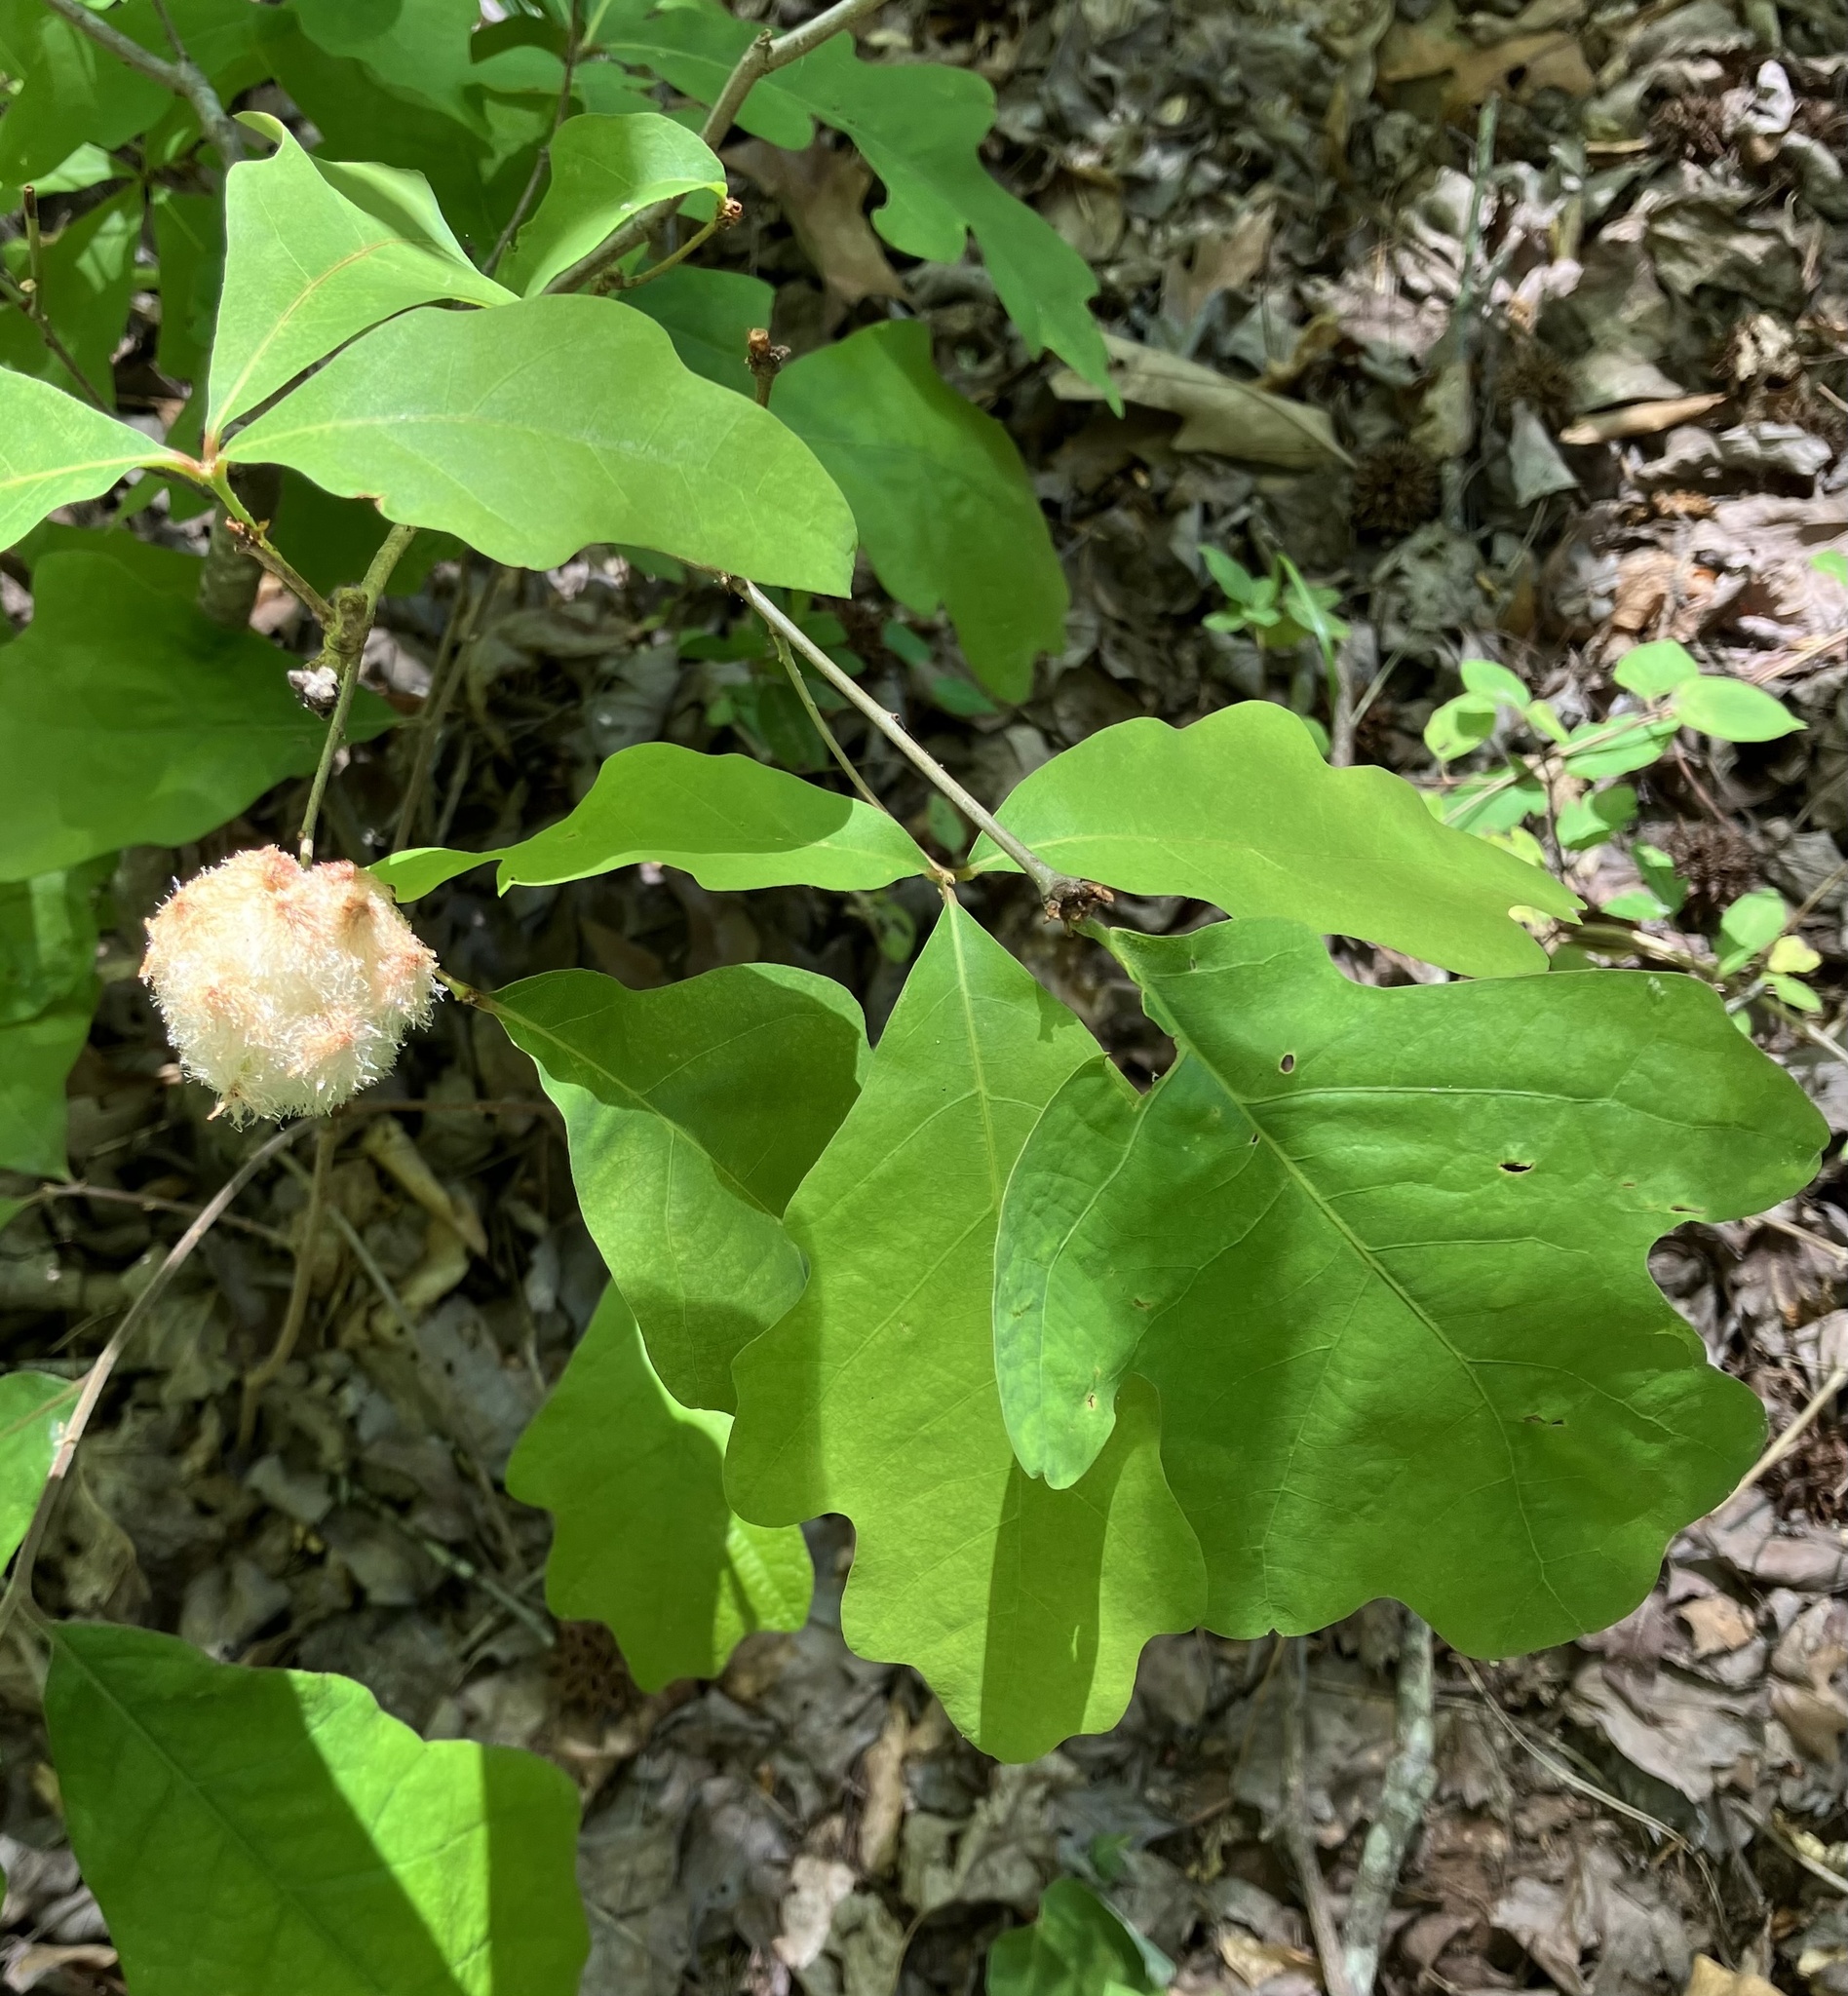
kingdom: Animalia
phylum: Arthropoda
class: Insecta
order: Hymenoptera
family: Cynipidae
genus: Callirhytis
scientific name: Callirhytis
